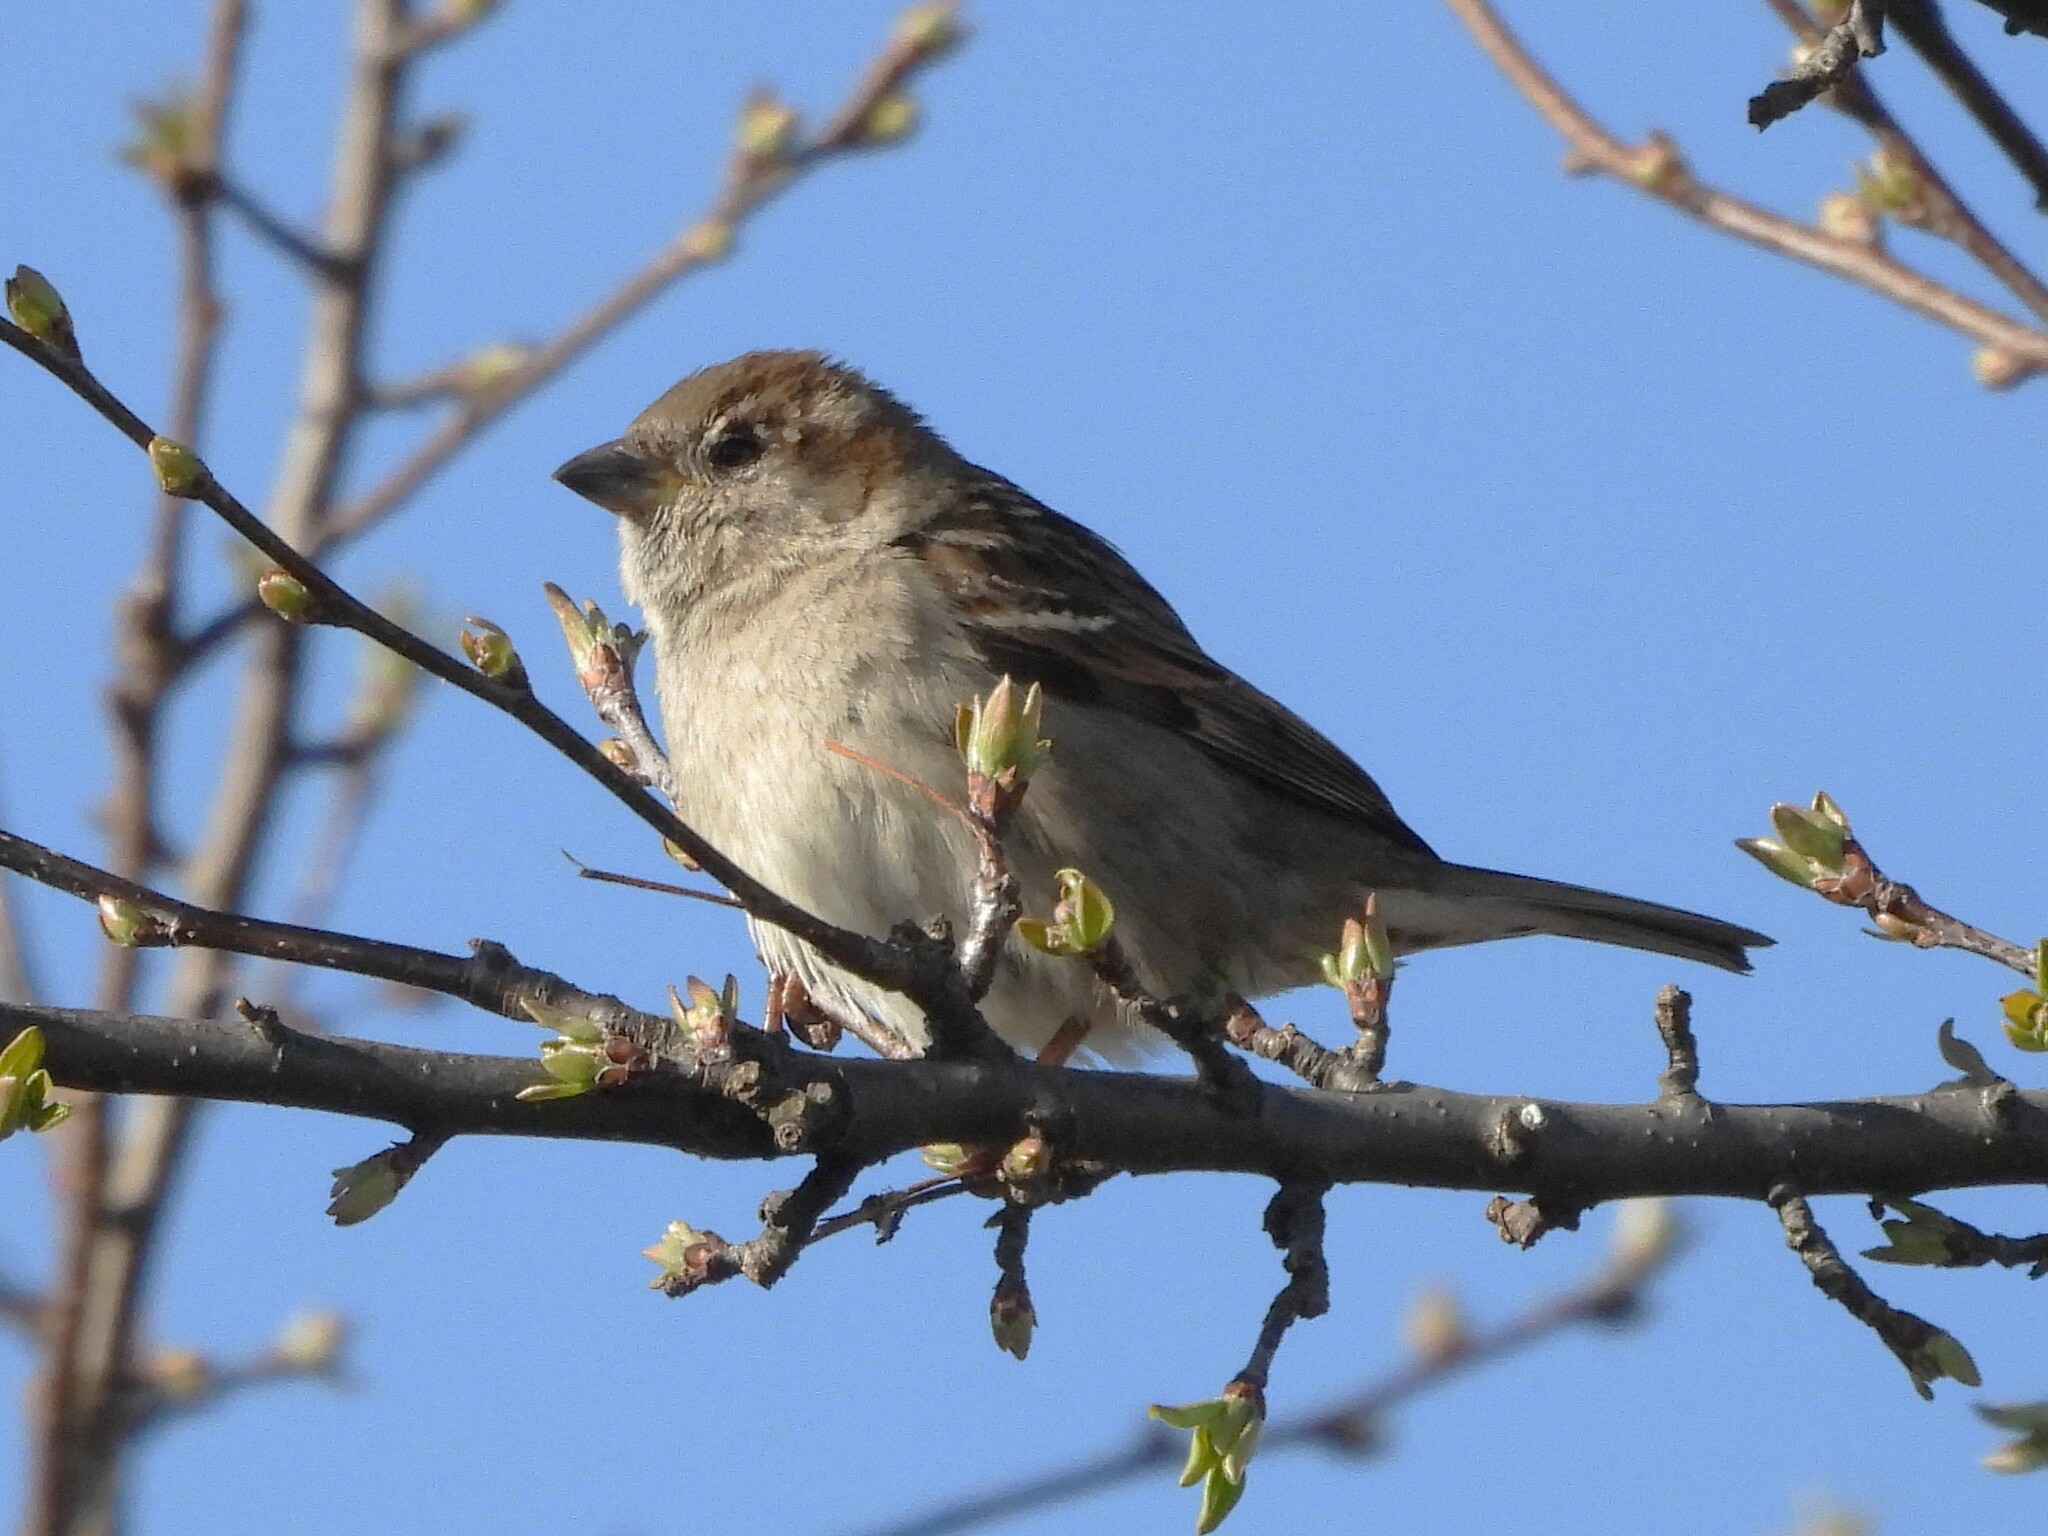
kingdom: Animalia
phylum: Chordata
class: Aves
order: Passeriformes
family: Passeridae
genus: Passer
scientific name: Passer domesticus
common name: House sparrow
